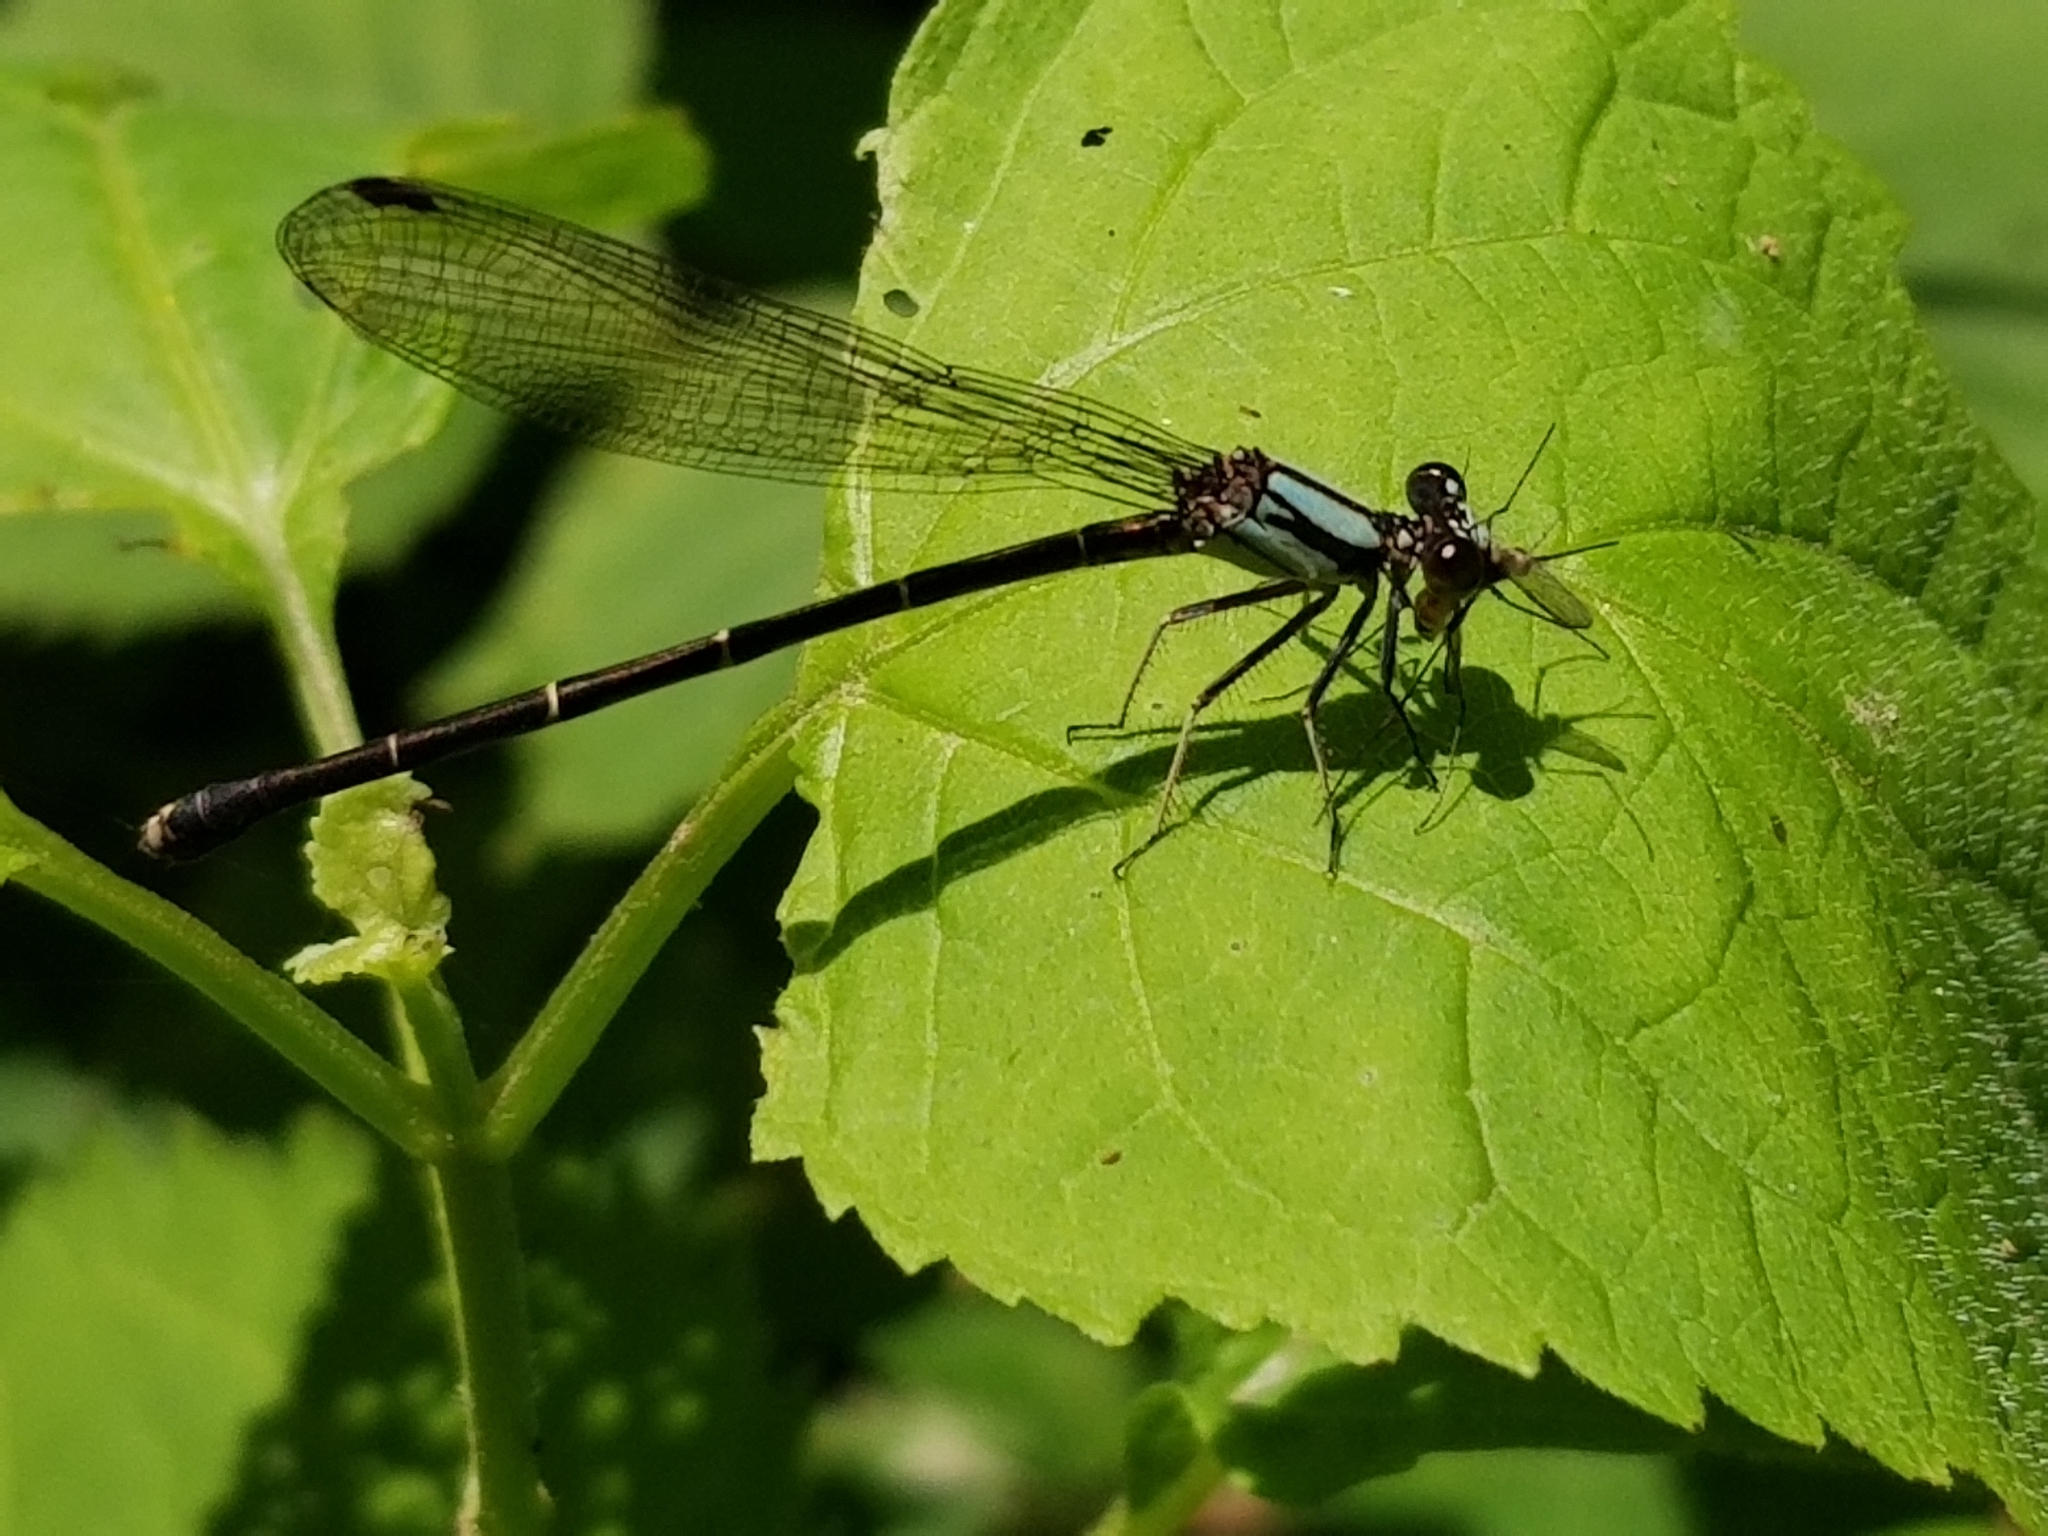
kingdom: Animalia
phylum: Arthropoda
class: Insecta
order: Odonata
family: Coenagrionidae
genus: Argia
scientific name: Argia tibialis
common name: Blue-tipped dancer
